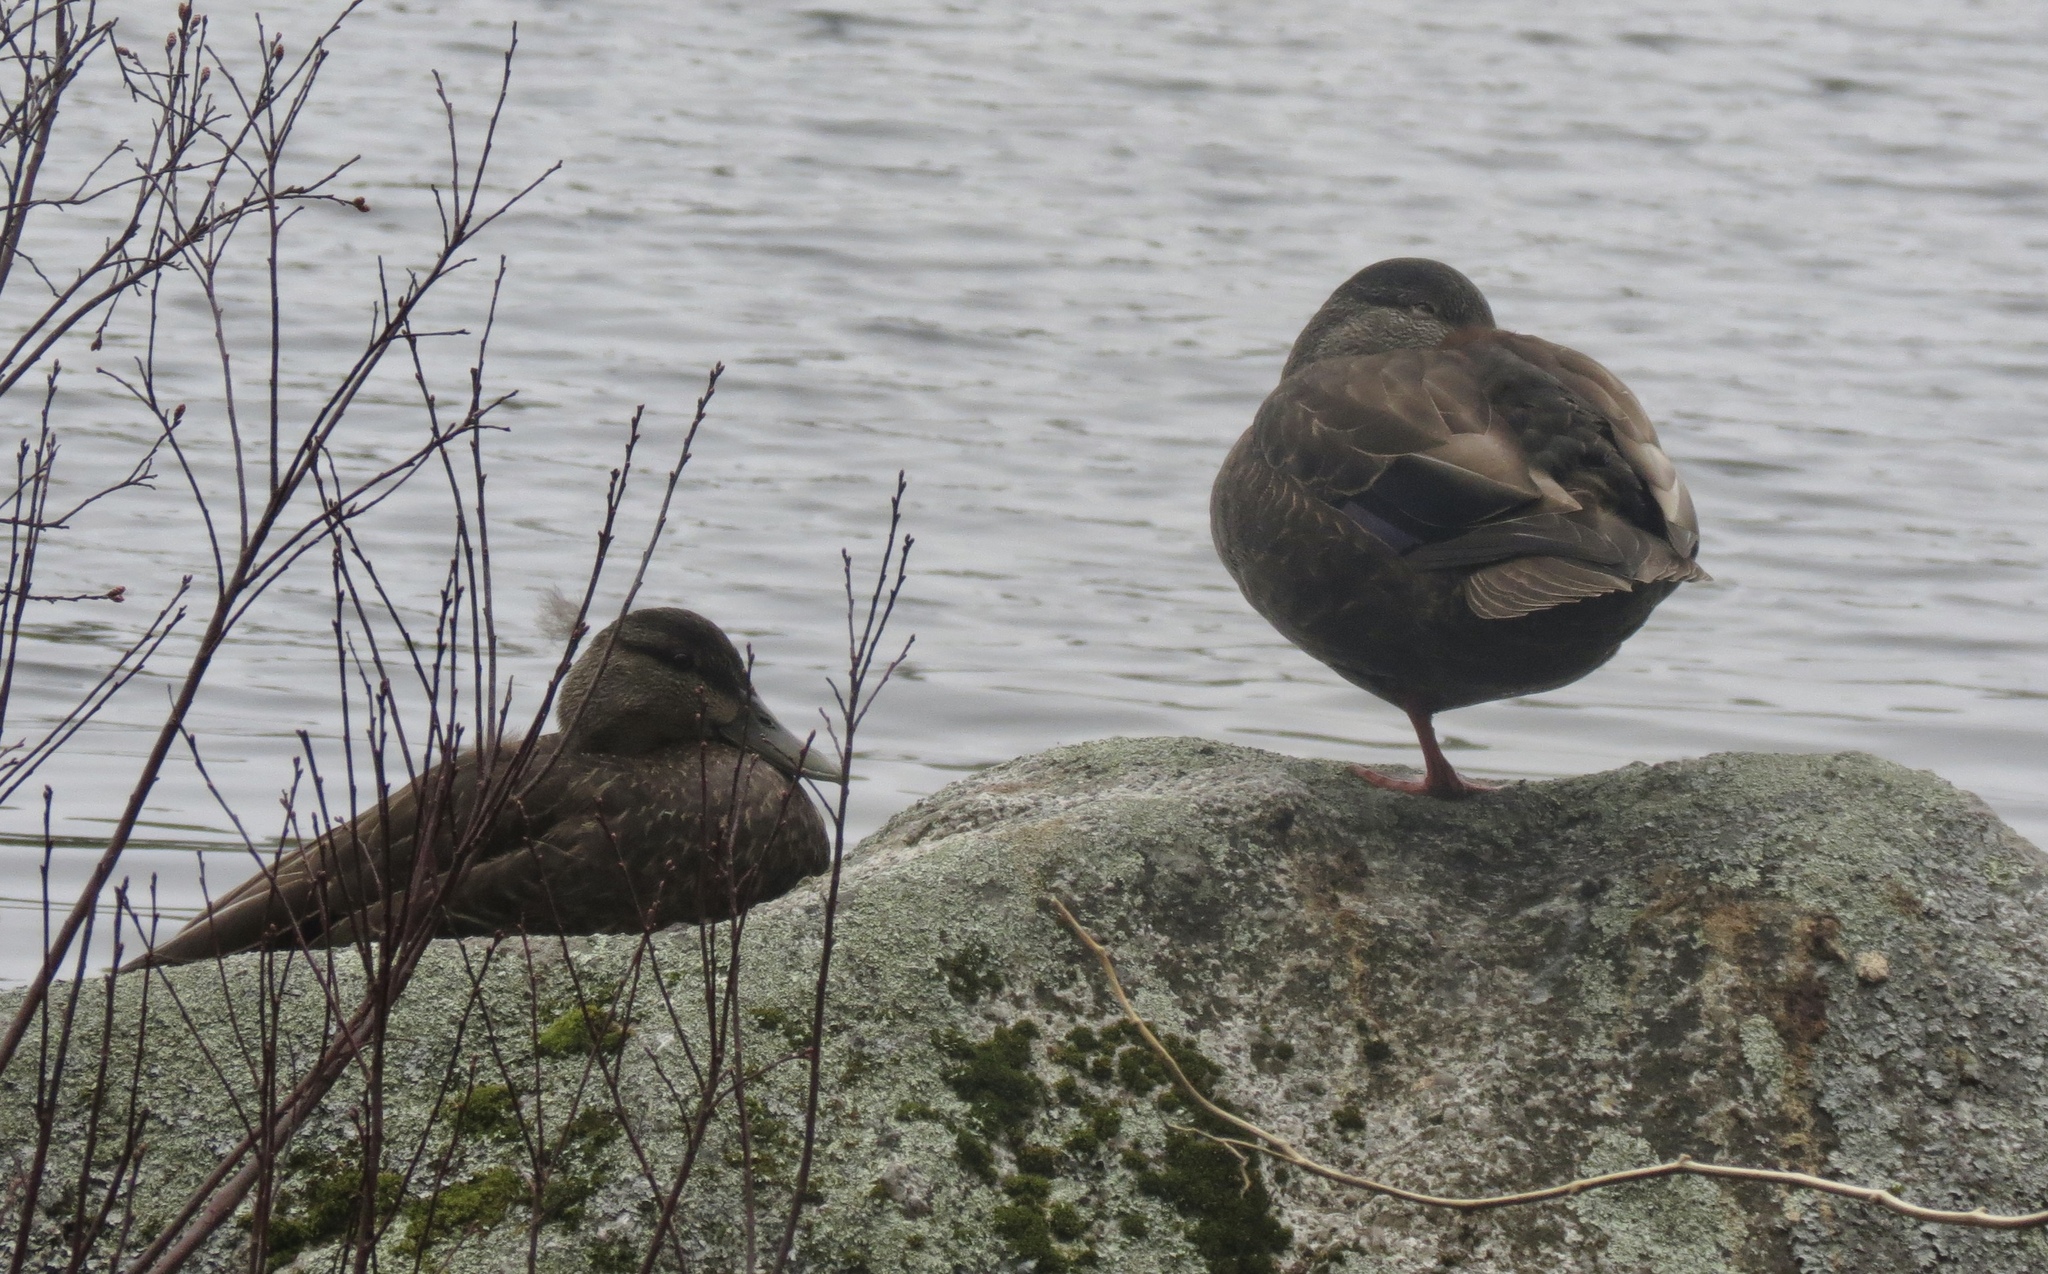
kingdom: Animalia
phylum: Chordata
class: Aves
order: Anseriformes
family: Anatidae
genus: Anas
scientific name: Anas rubripes
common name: American black duck
